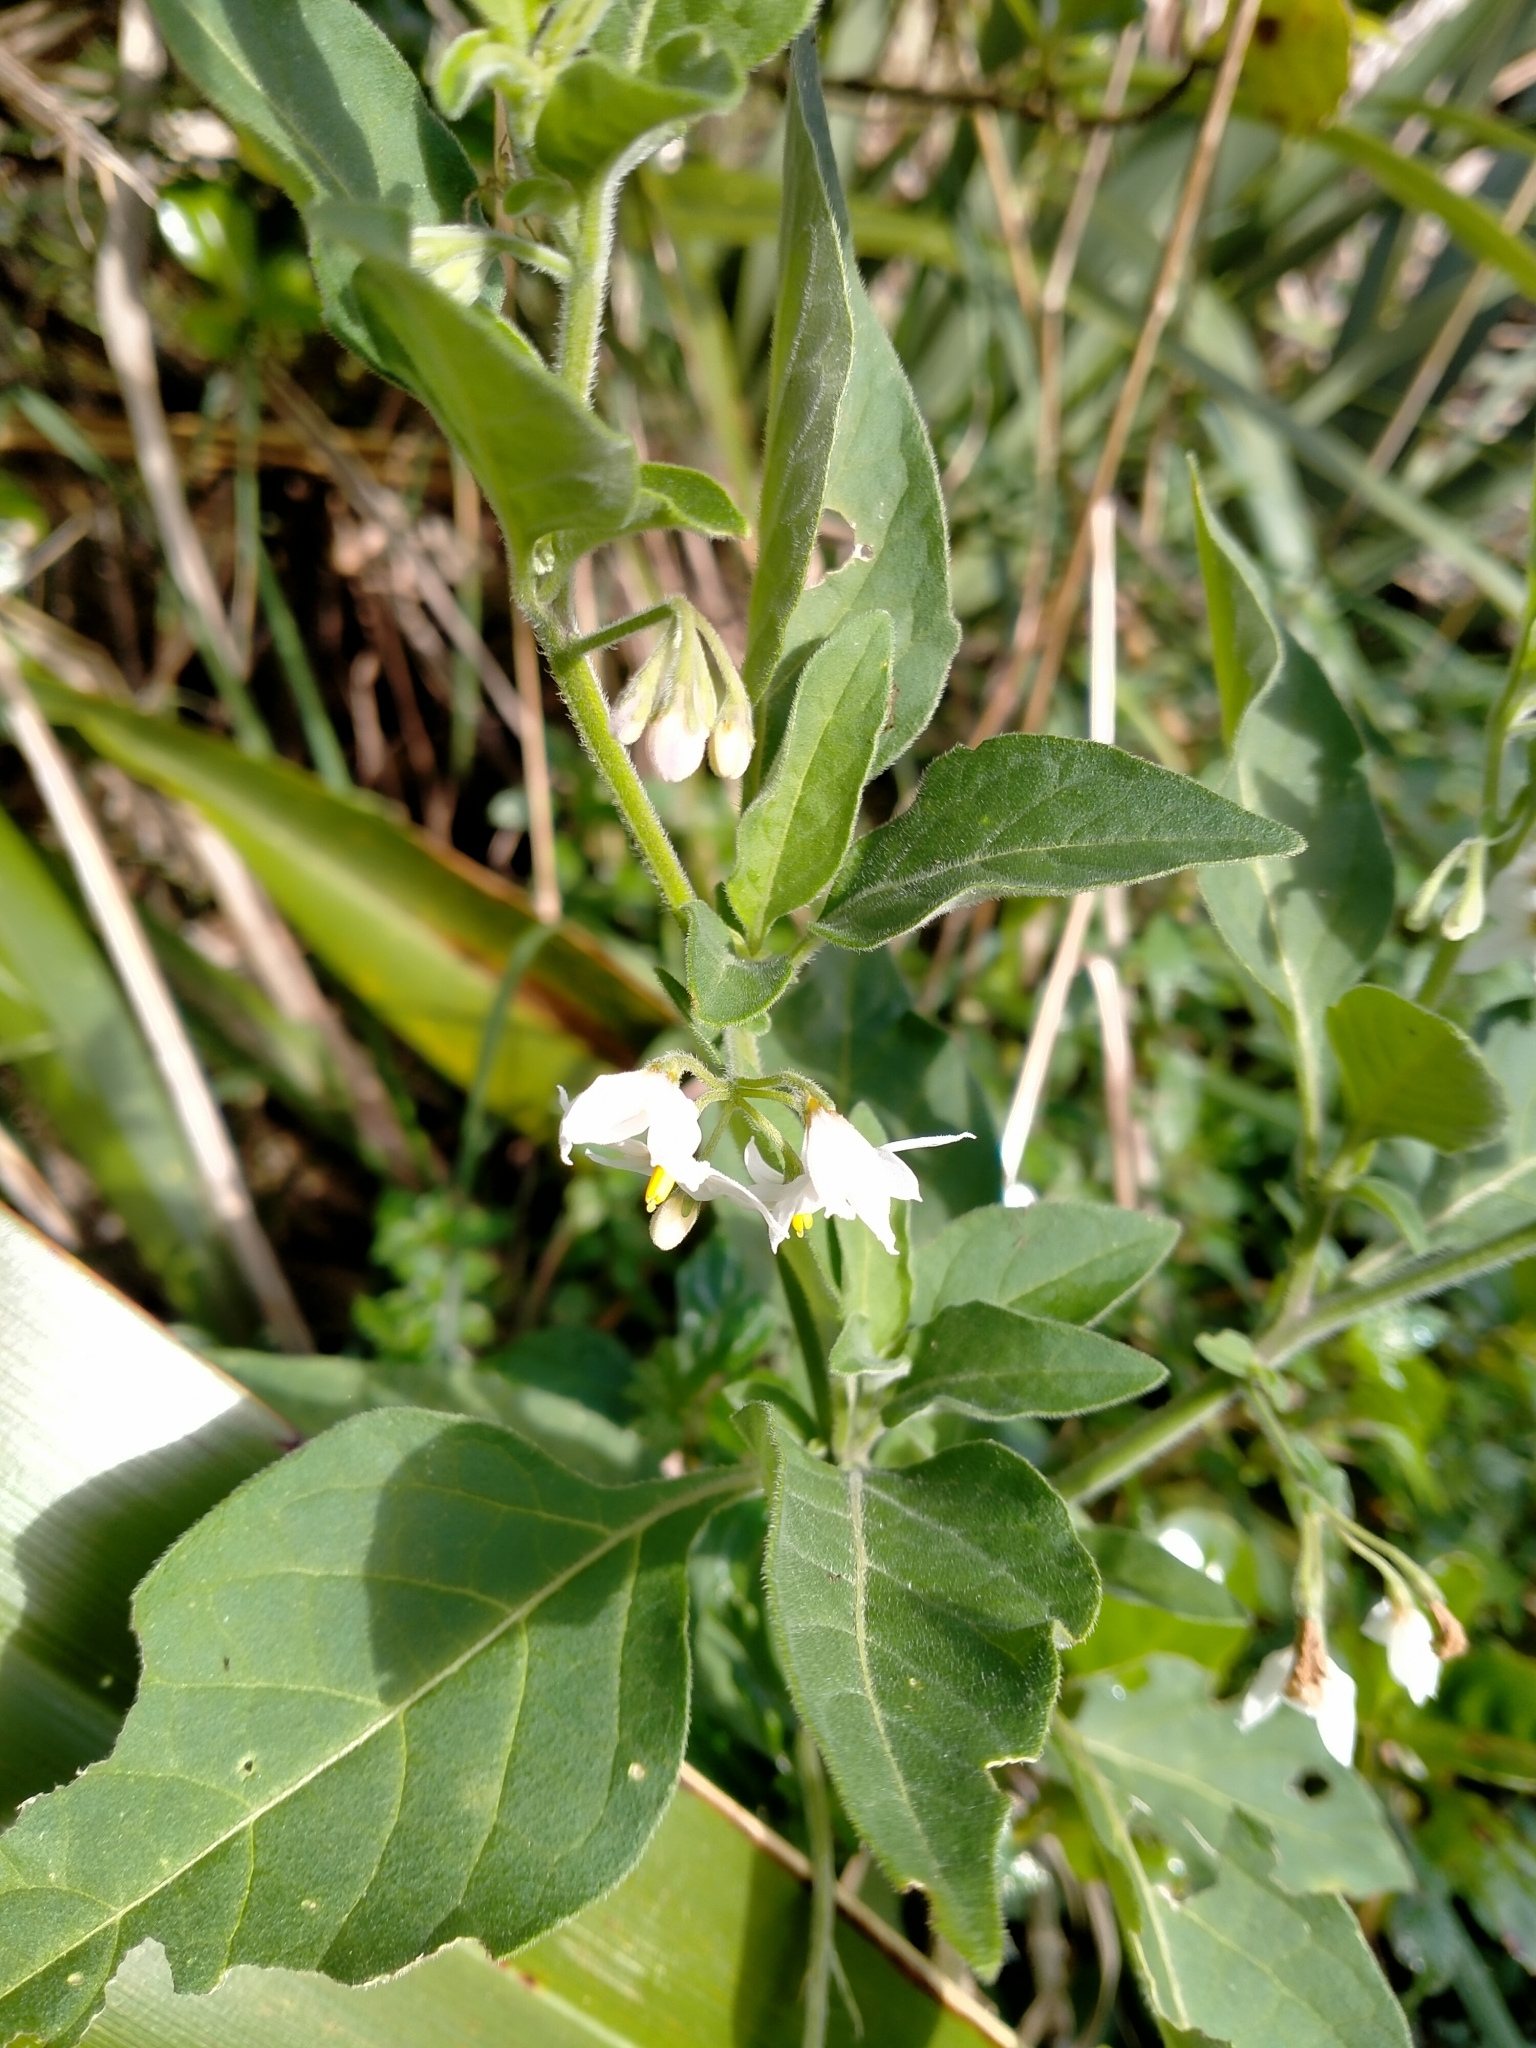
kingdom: Plantae
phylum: Tracheophyta
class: Magnoliopsida
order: Solanales
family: Solanaceae
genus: Solanum
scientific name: Solanum chenopodioides
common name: Tall nightshade
